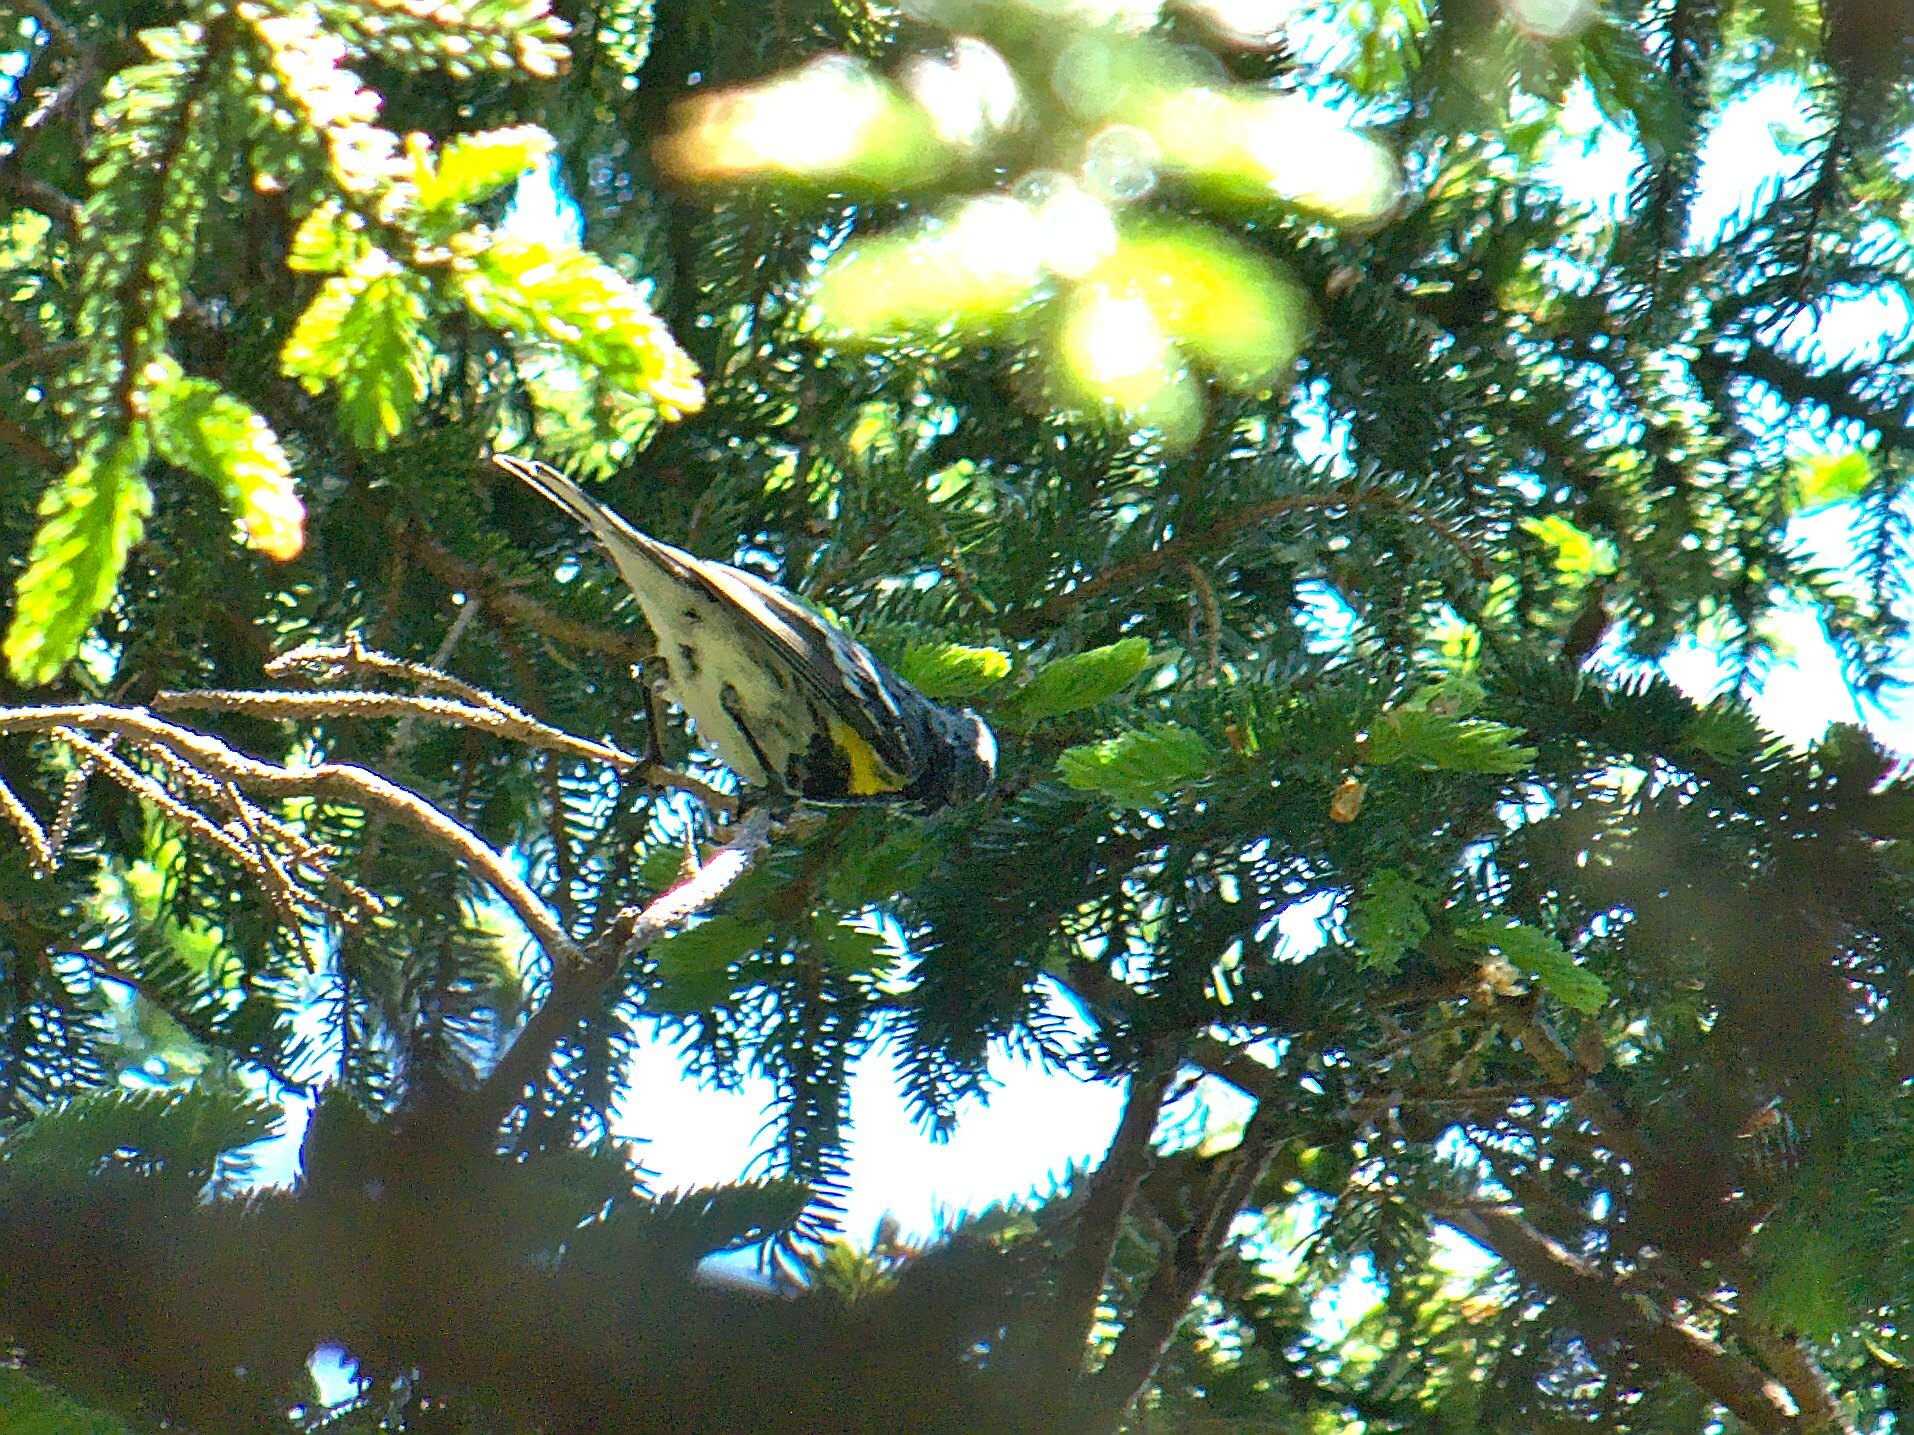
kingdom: Animalia
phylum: Chordata
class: Aves
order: Passeriformes
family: Parulidae
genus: Setophaga
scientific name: Setophaga coronata
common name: Myrtle warbler
